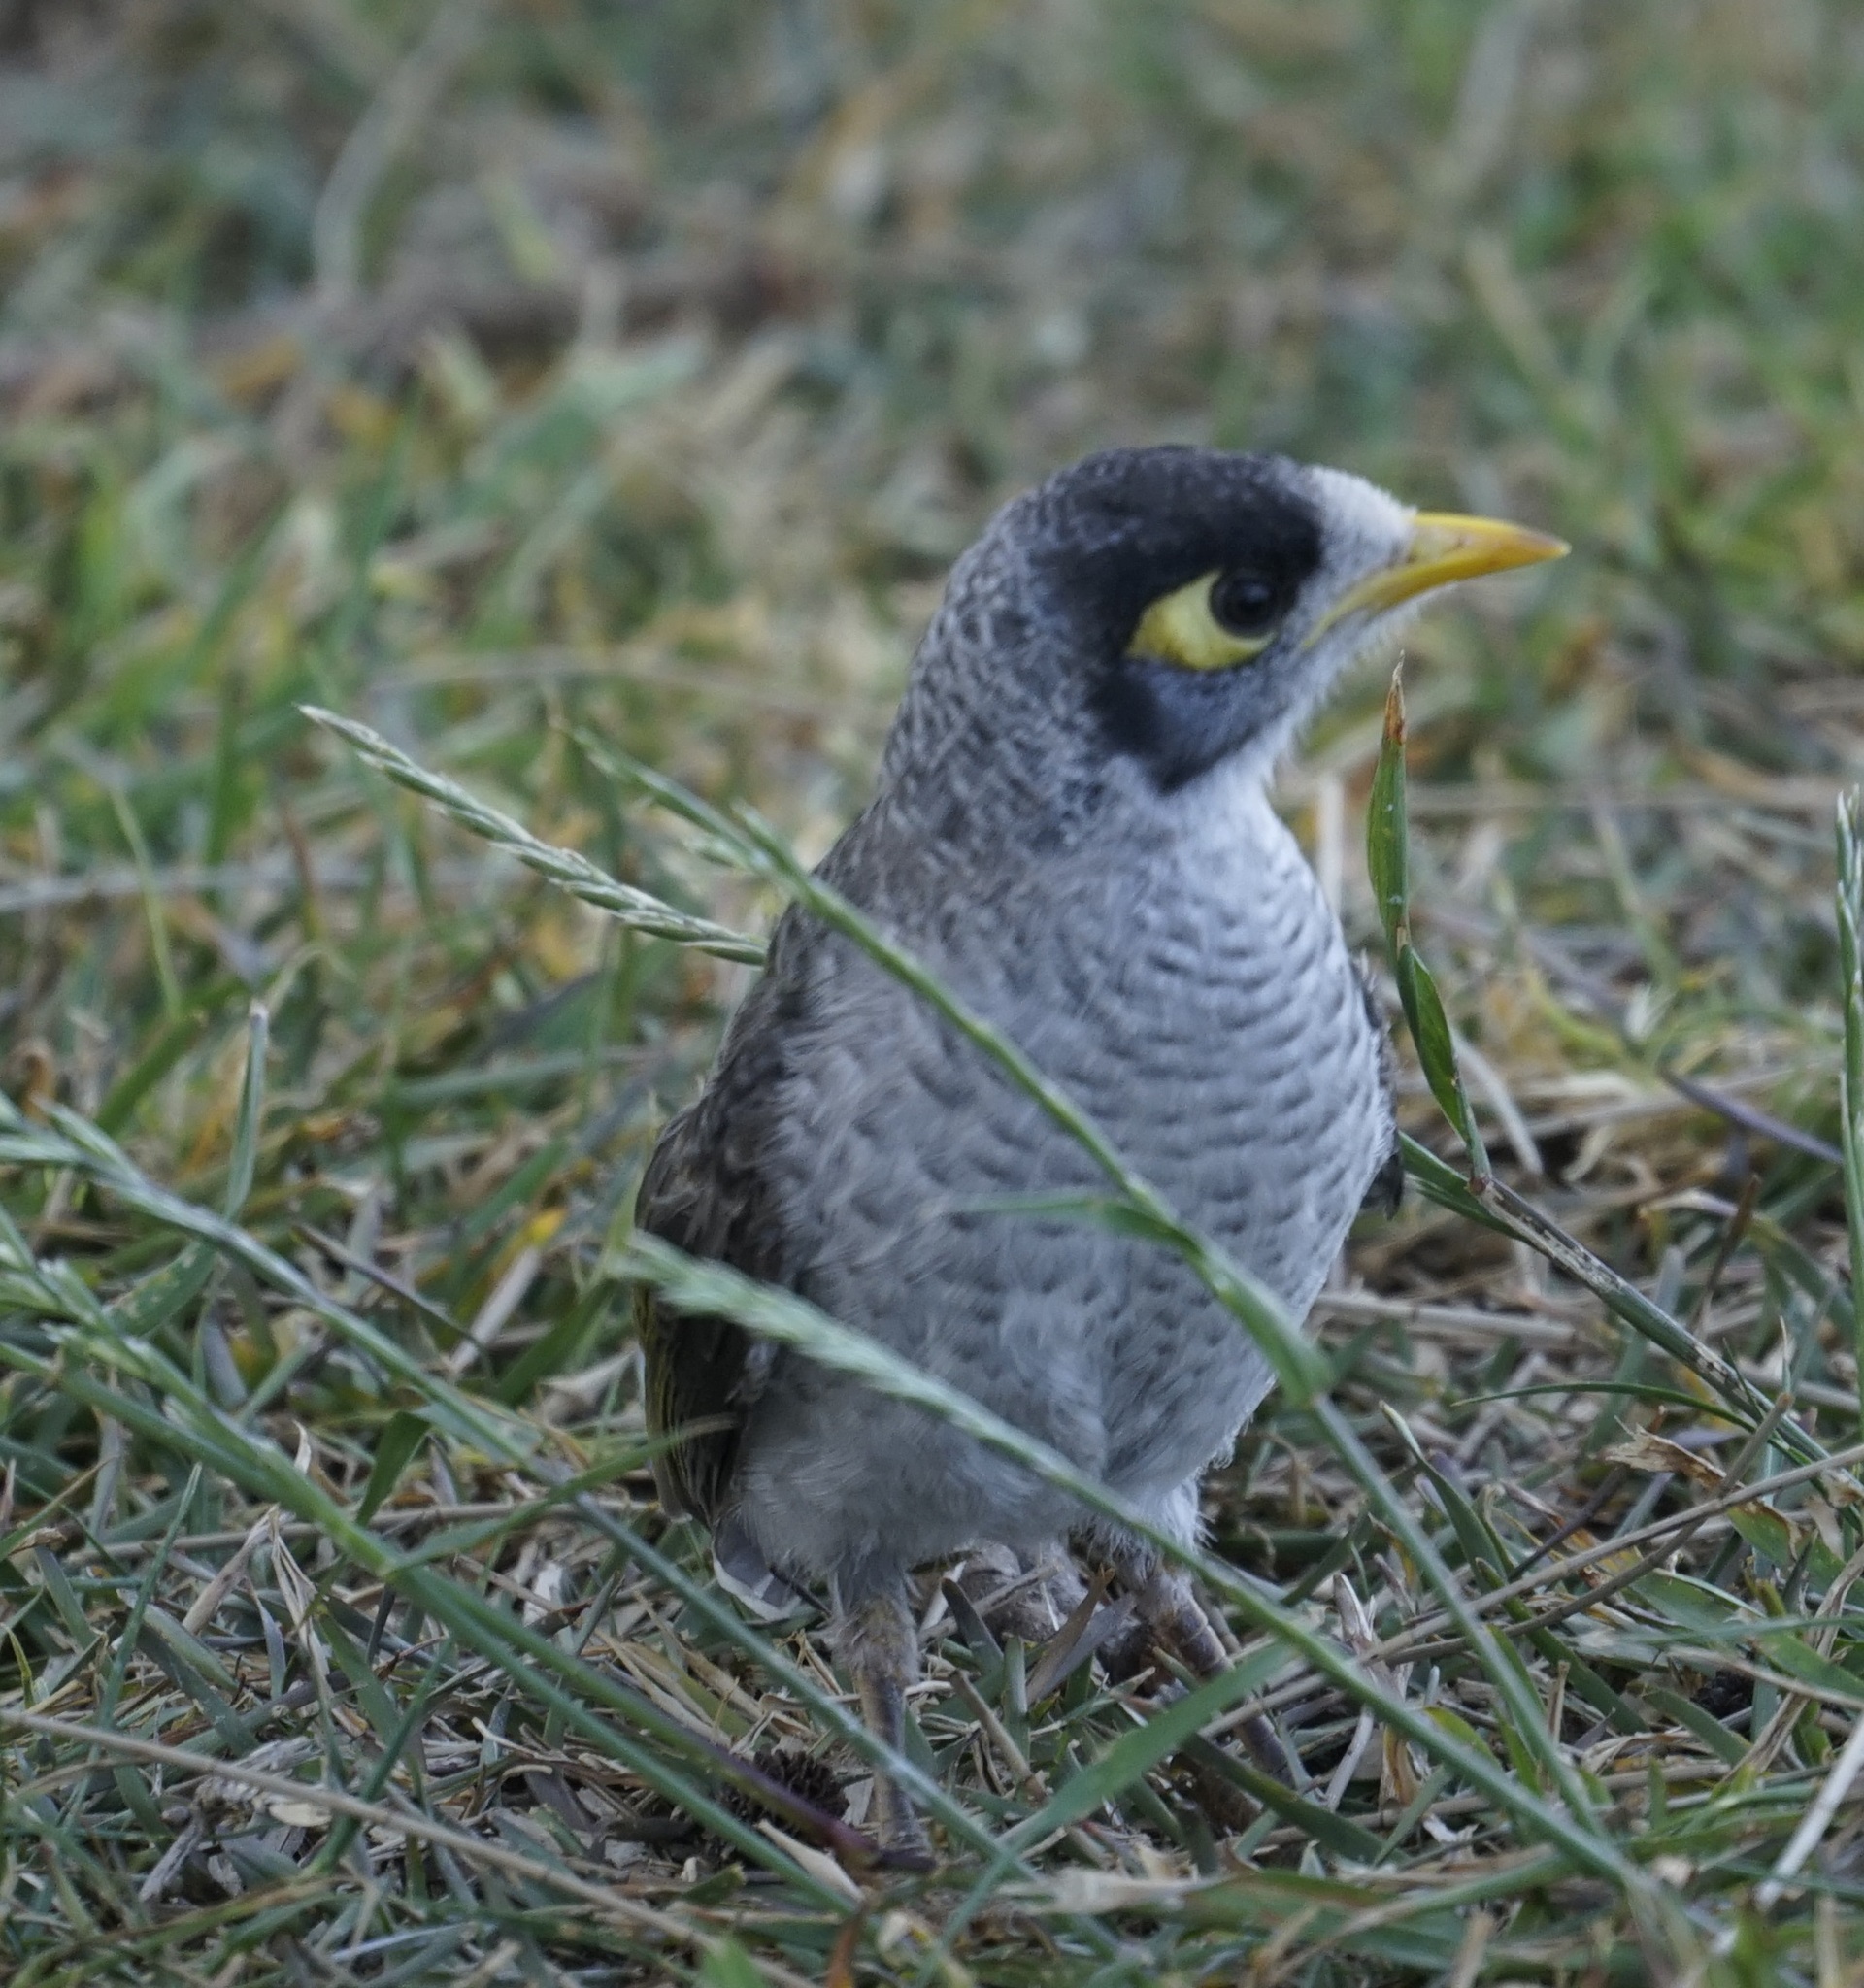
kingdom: Animalia
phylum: Chordata
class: Aves
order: Passeriformes
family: Meliphagidae
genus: Manorina
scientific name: Manorina melanocephala
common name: Noisy miner
